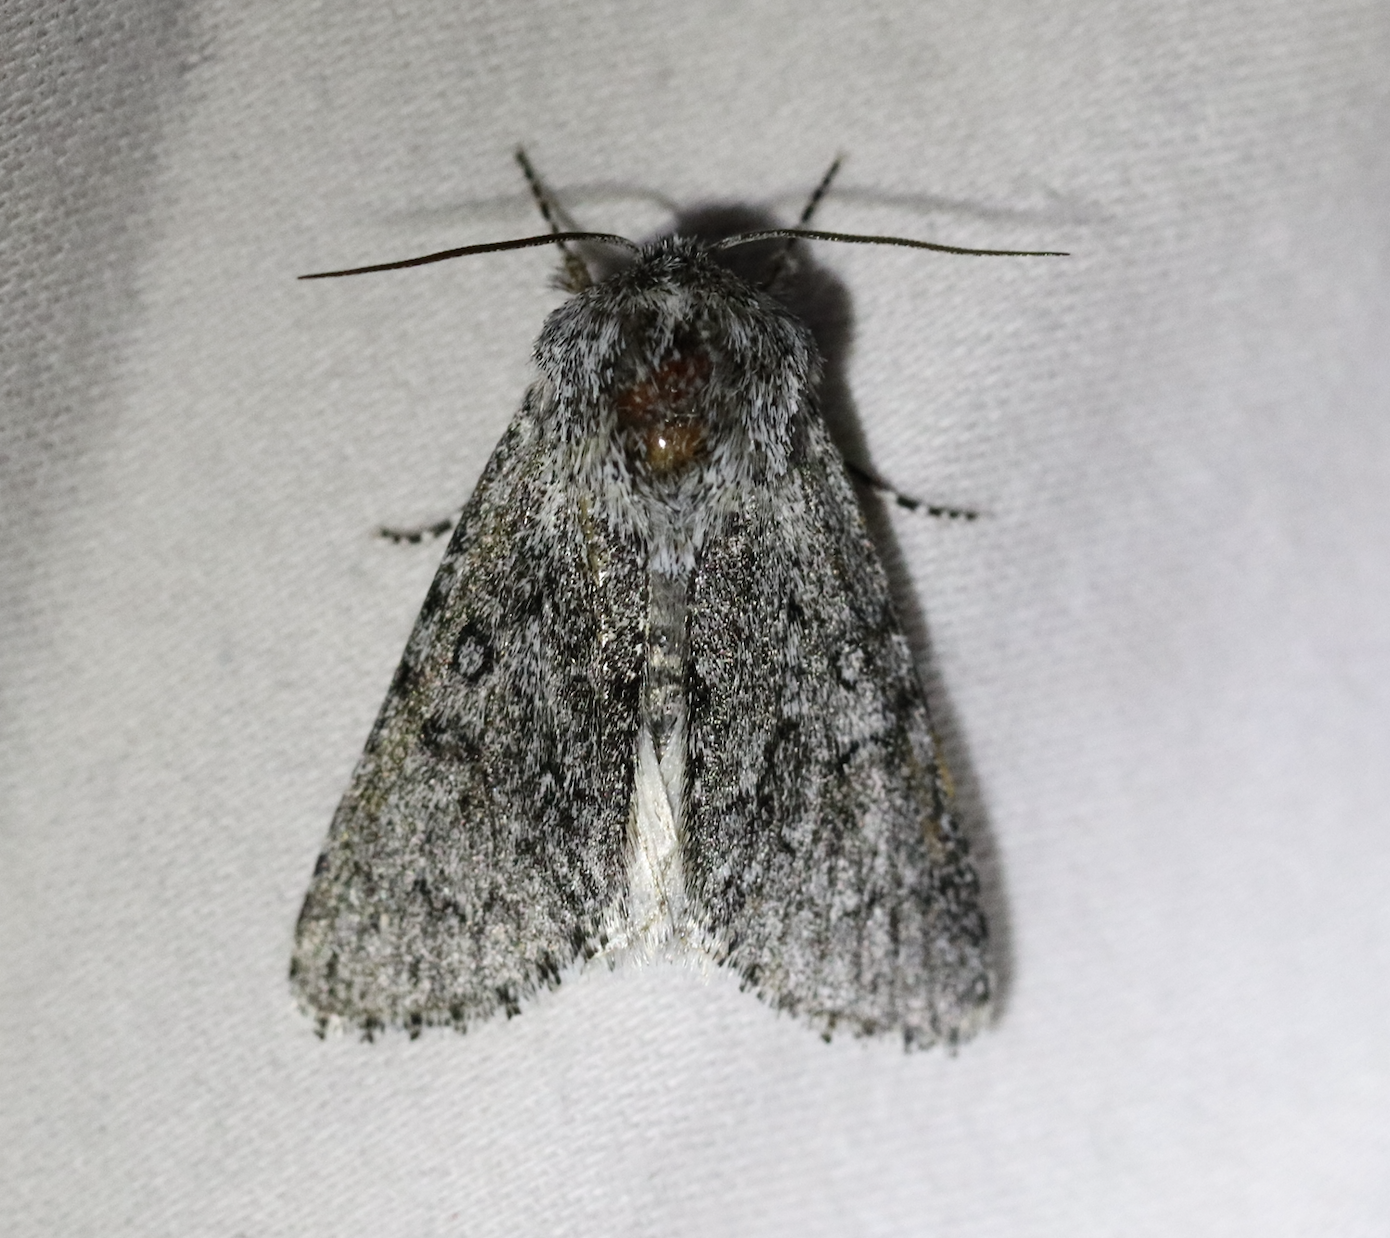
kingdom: Animalia
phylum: Arthropoda
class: Insecta
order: Lepidoptera
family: Noctuidae
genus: Acronicta
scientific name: Acronicta euphorbiae
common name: Sweet gale moth
